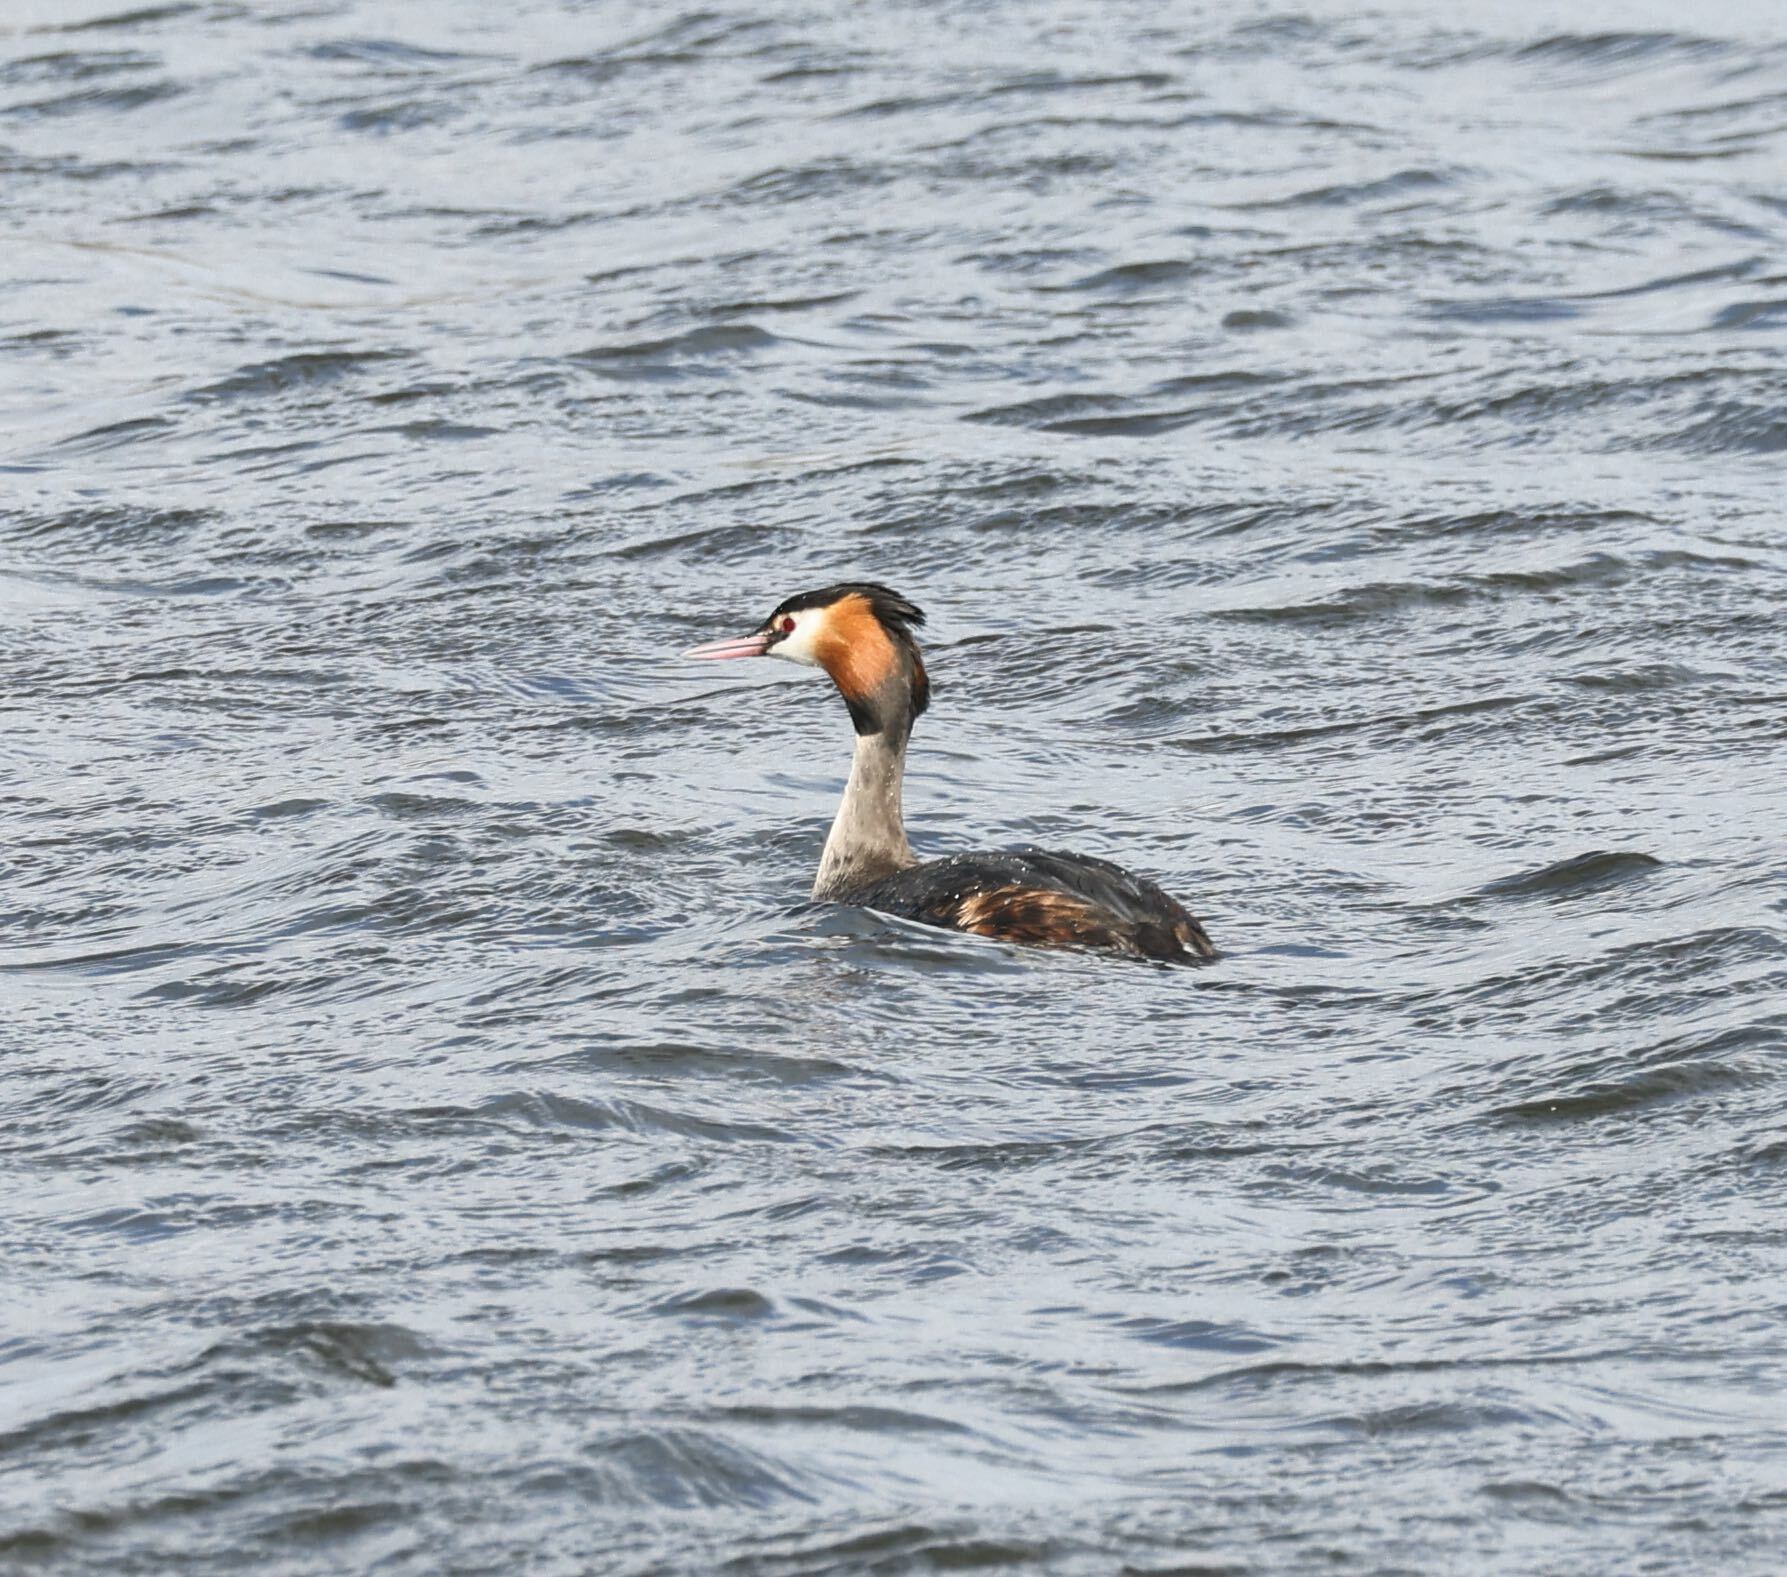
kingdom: Animalia
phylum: Chordata
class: Aves
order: Podicipediformes
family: Podicipedidae
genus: Podiceps
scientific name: Podiceps cristatus
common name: Great crested grebe
